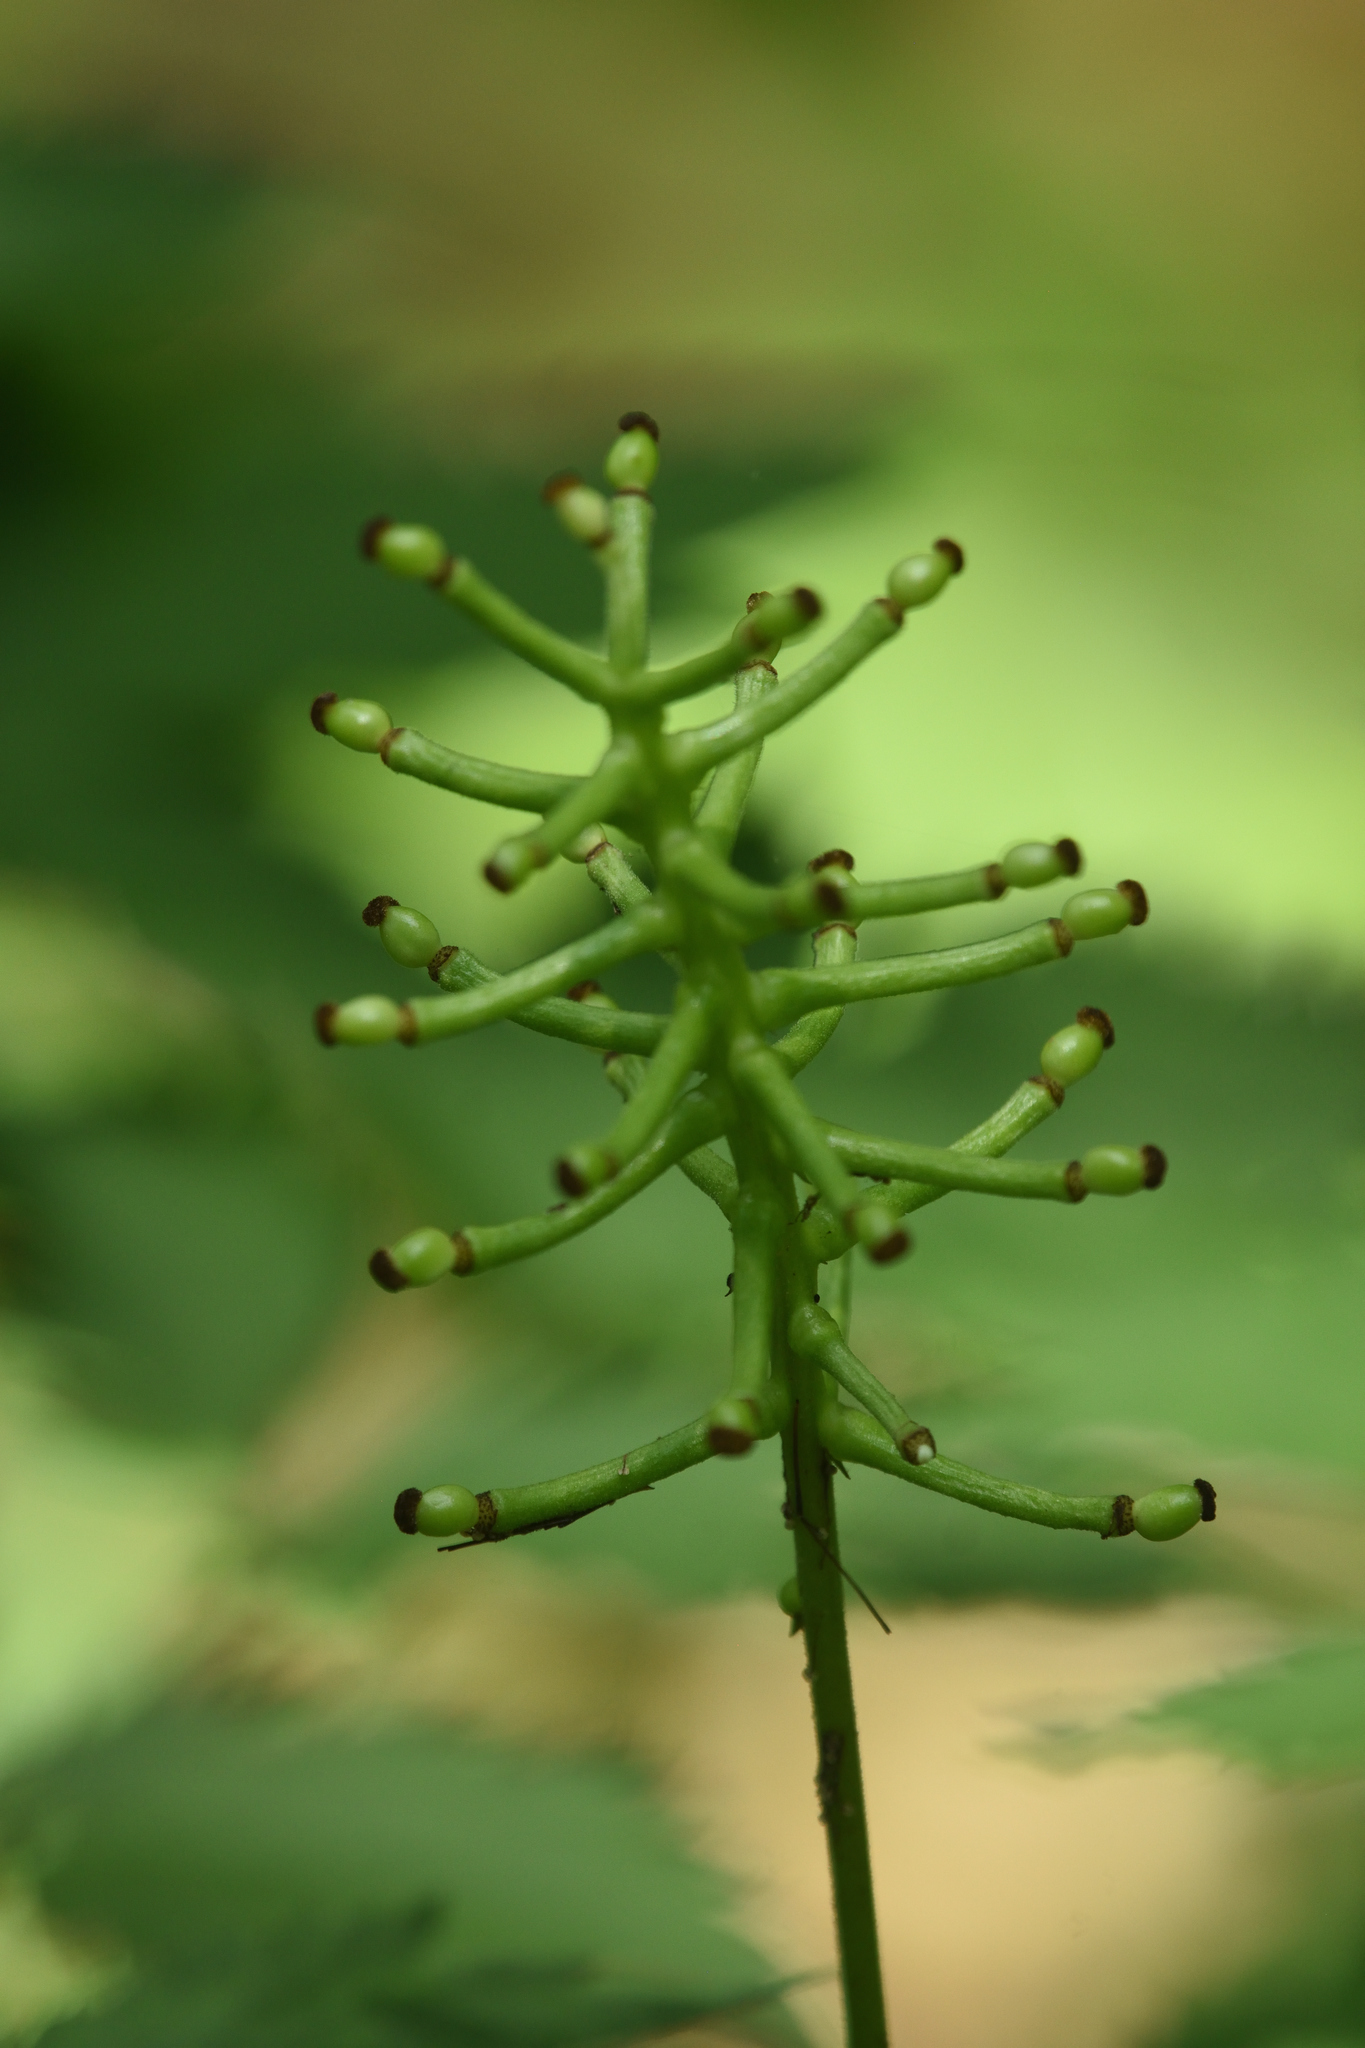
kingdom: Plantae
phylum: Tracheophyta
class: Magnoliopsida
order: Ranunculales
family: Ranunculaceae
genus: Actaea
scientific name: Actaea pachypoda
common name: Doll's-eyes
